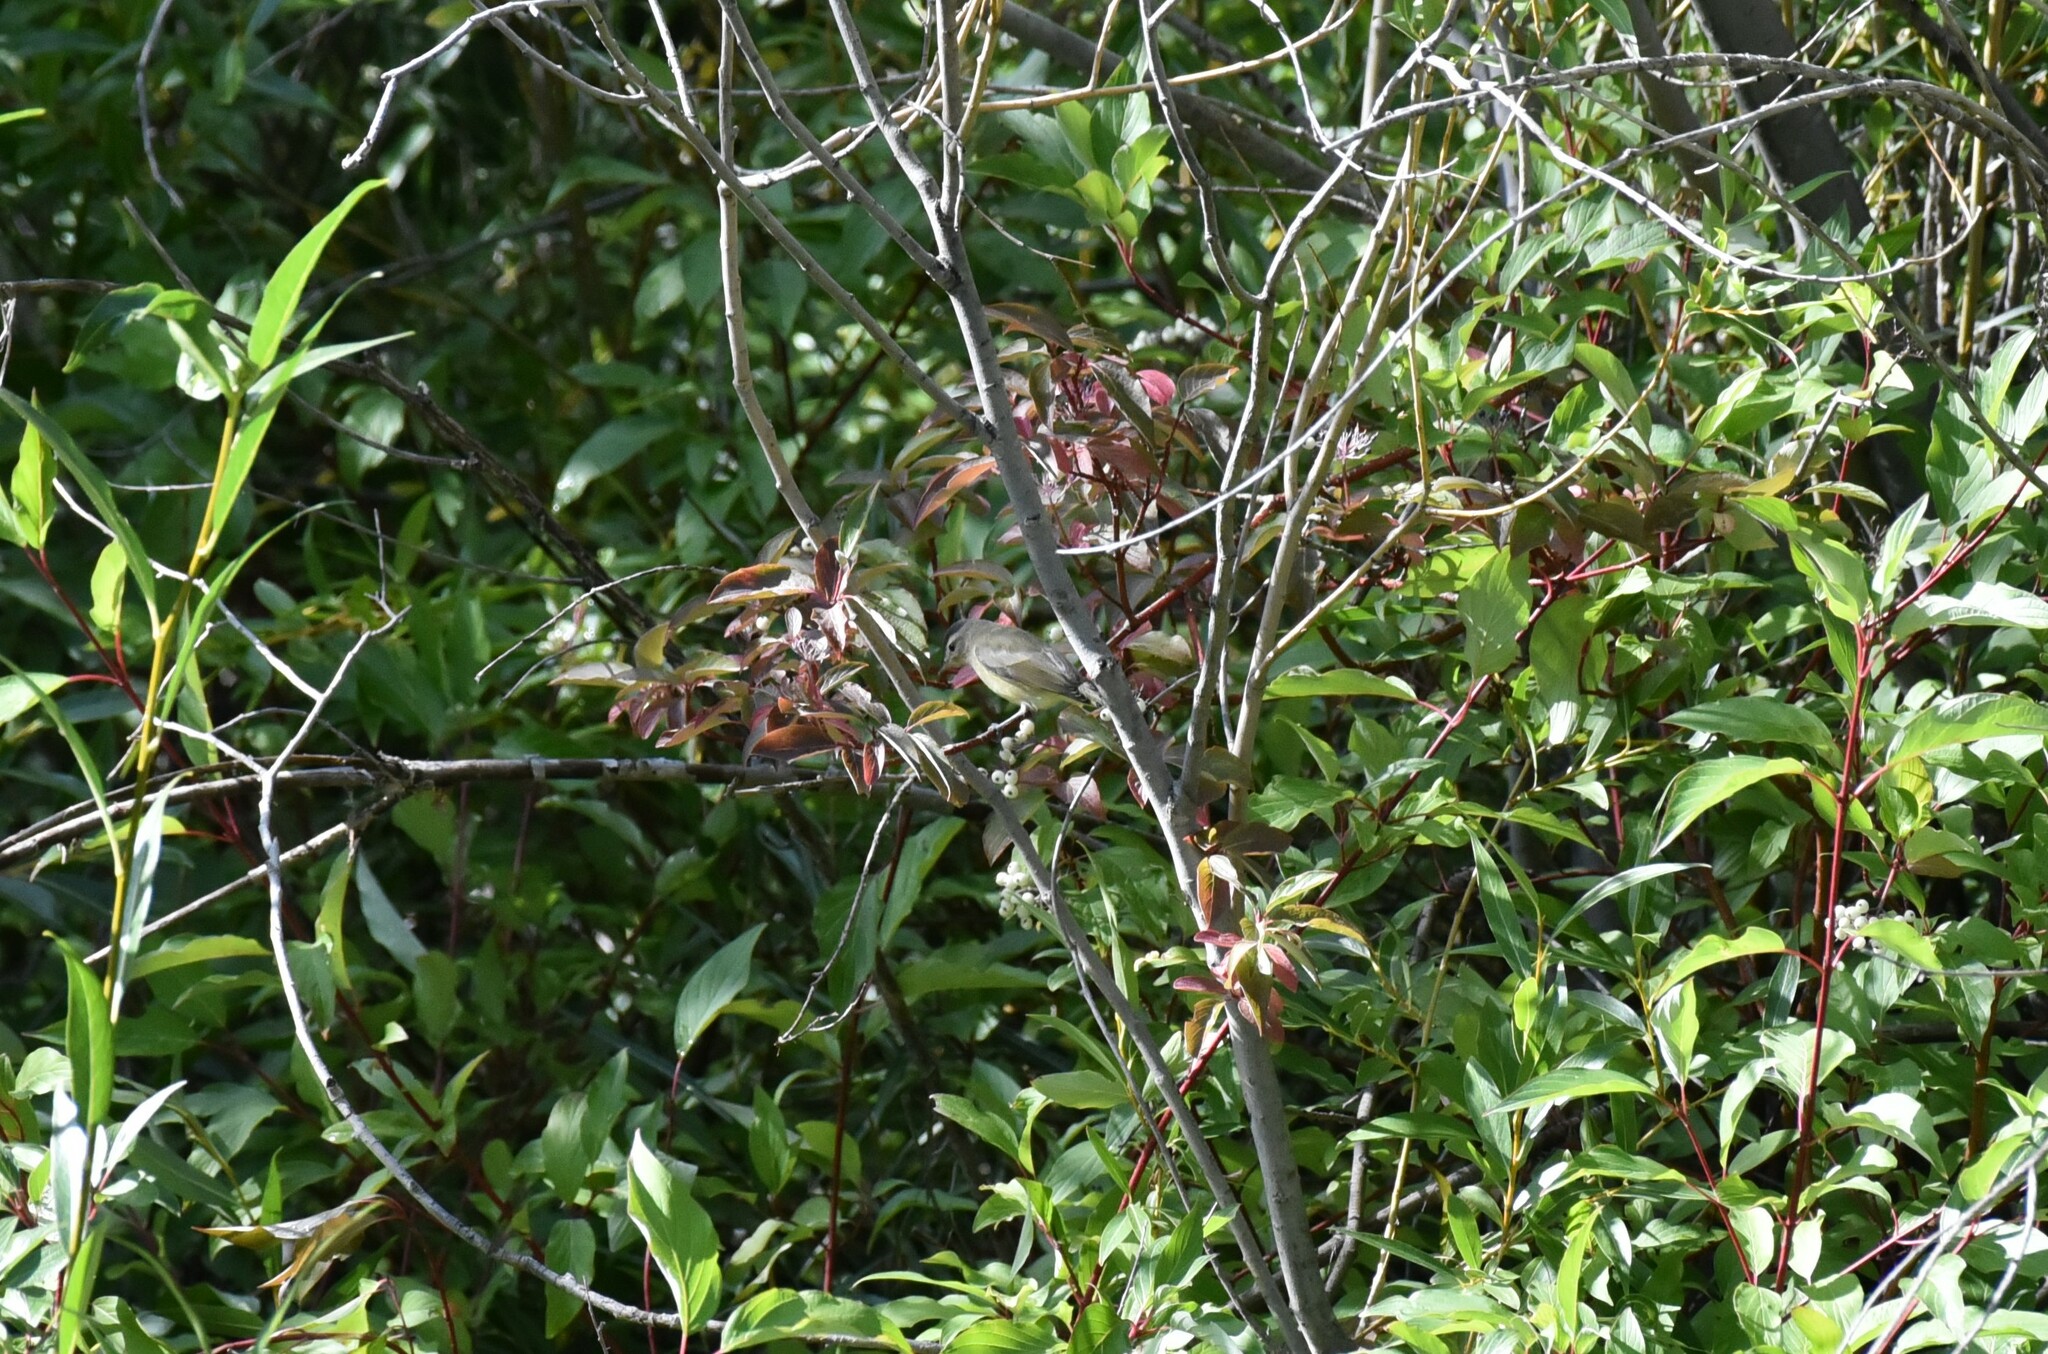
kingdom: Animalia
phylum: Chordata
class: Aves
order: Passeriformes
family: Vireonidae
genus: Vireo
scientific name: Vireo gilvus
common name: Warbling vireo
